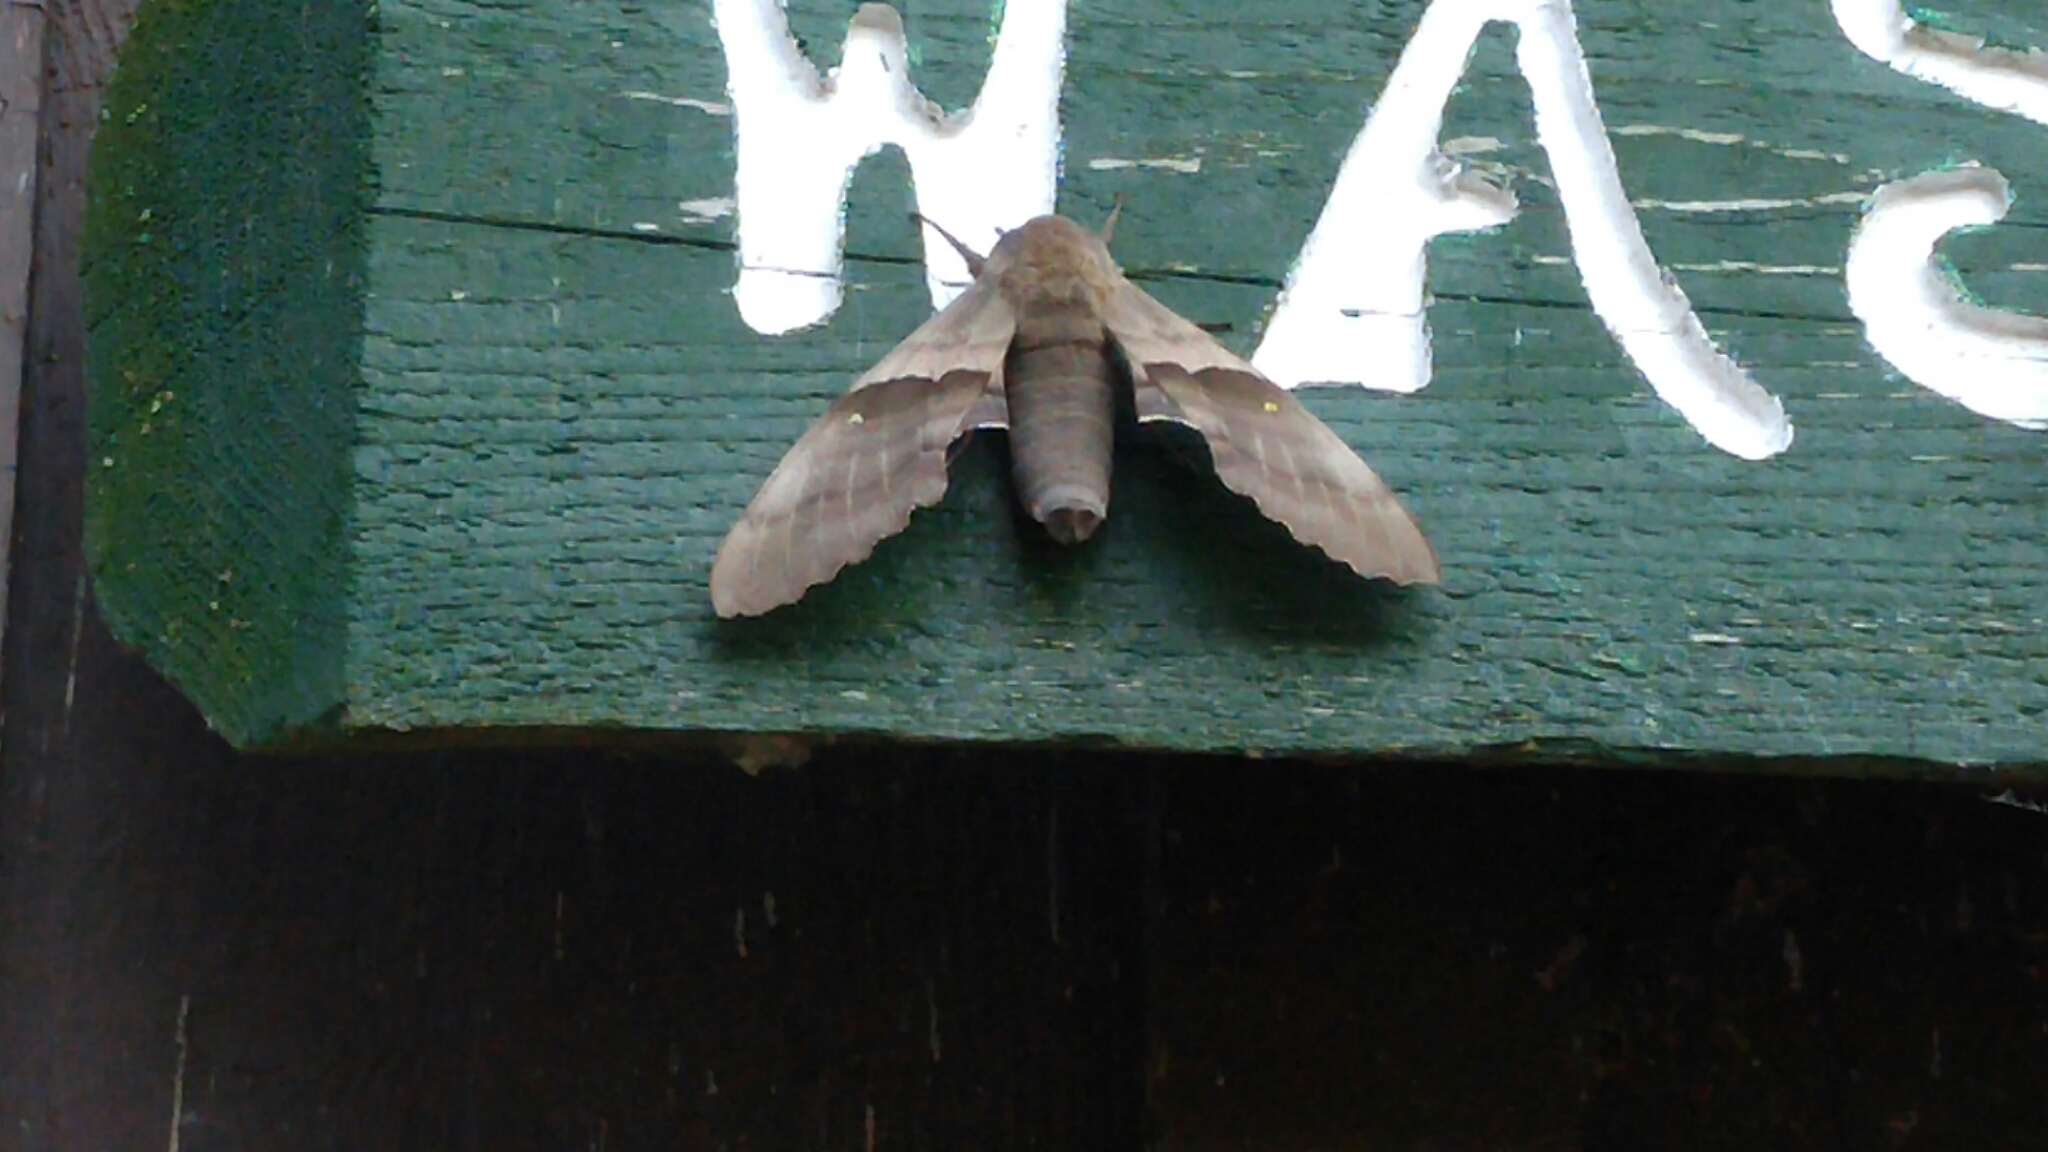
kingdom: Animalia
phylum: Arthropoda
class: Insecta
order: Lepidoptera
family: Sphingidae
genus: Pachysphinx
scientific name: Pachysphinx modesta
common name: Big poplar sphinx
